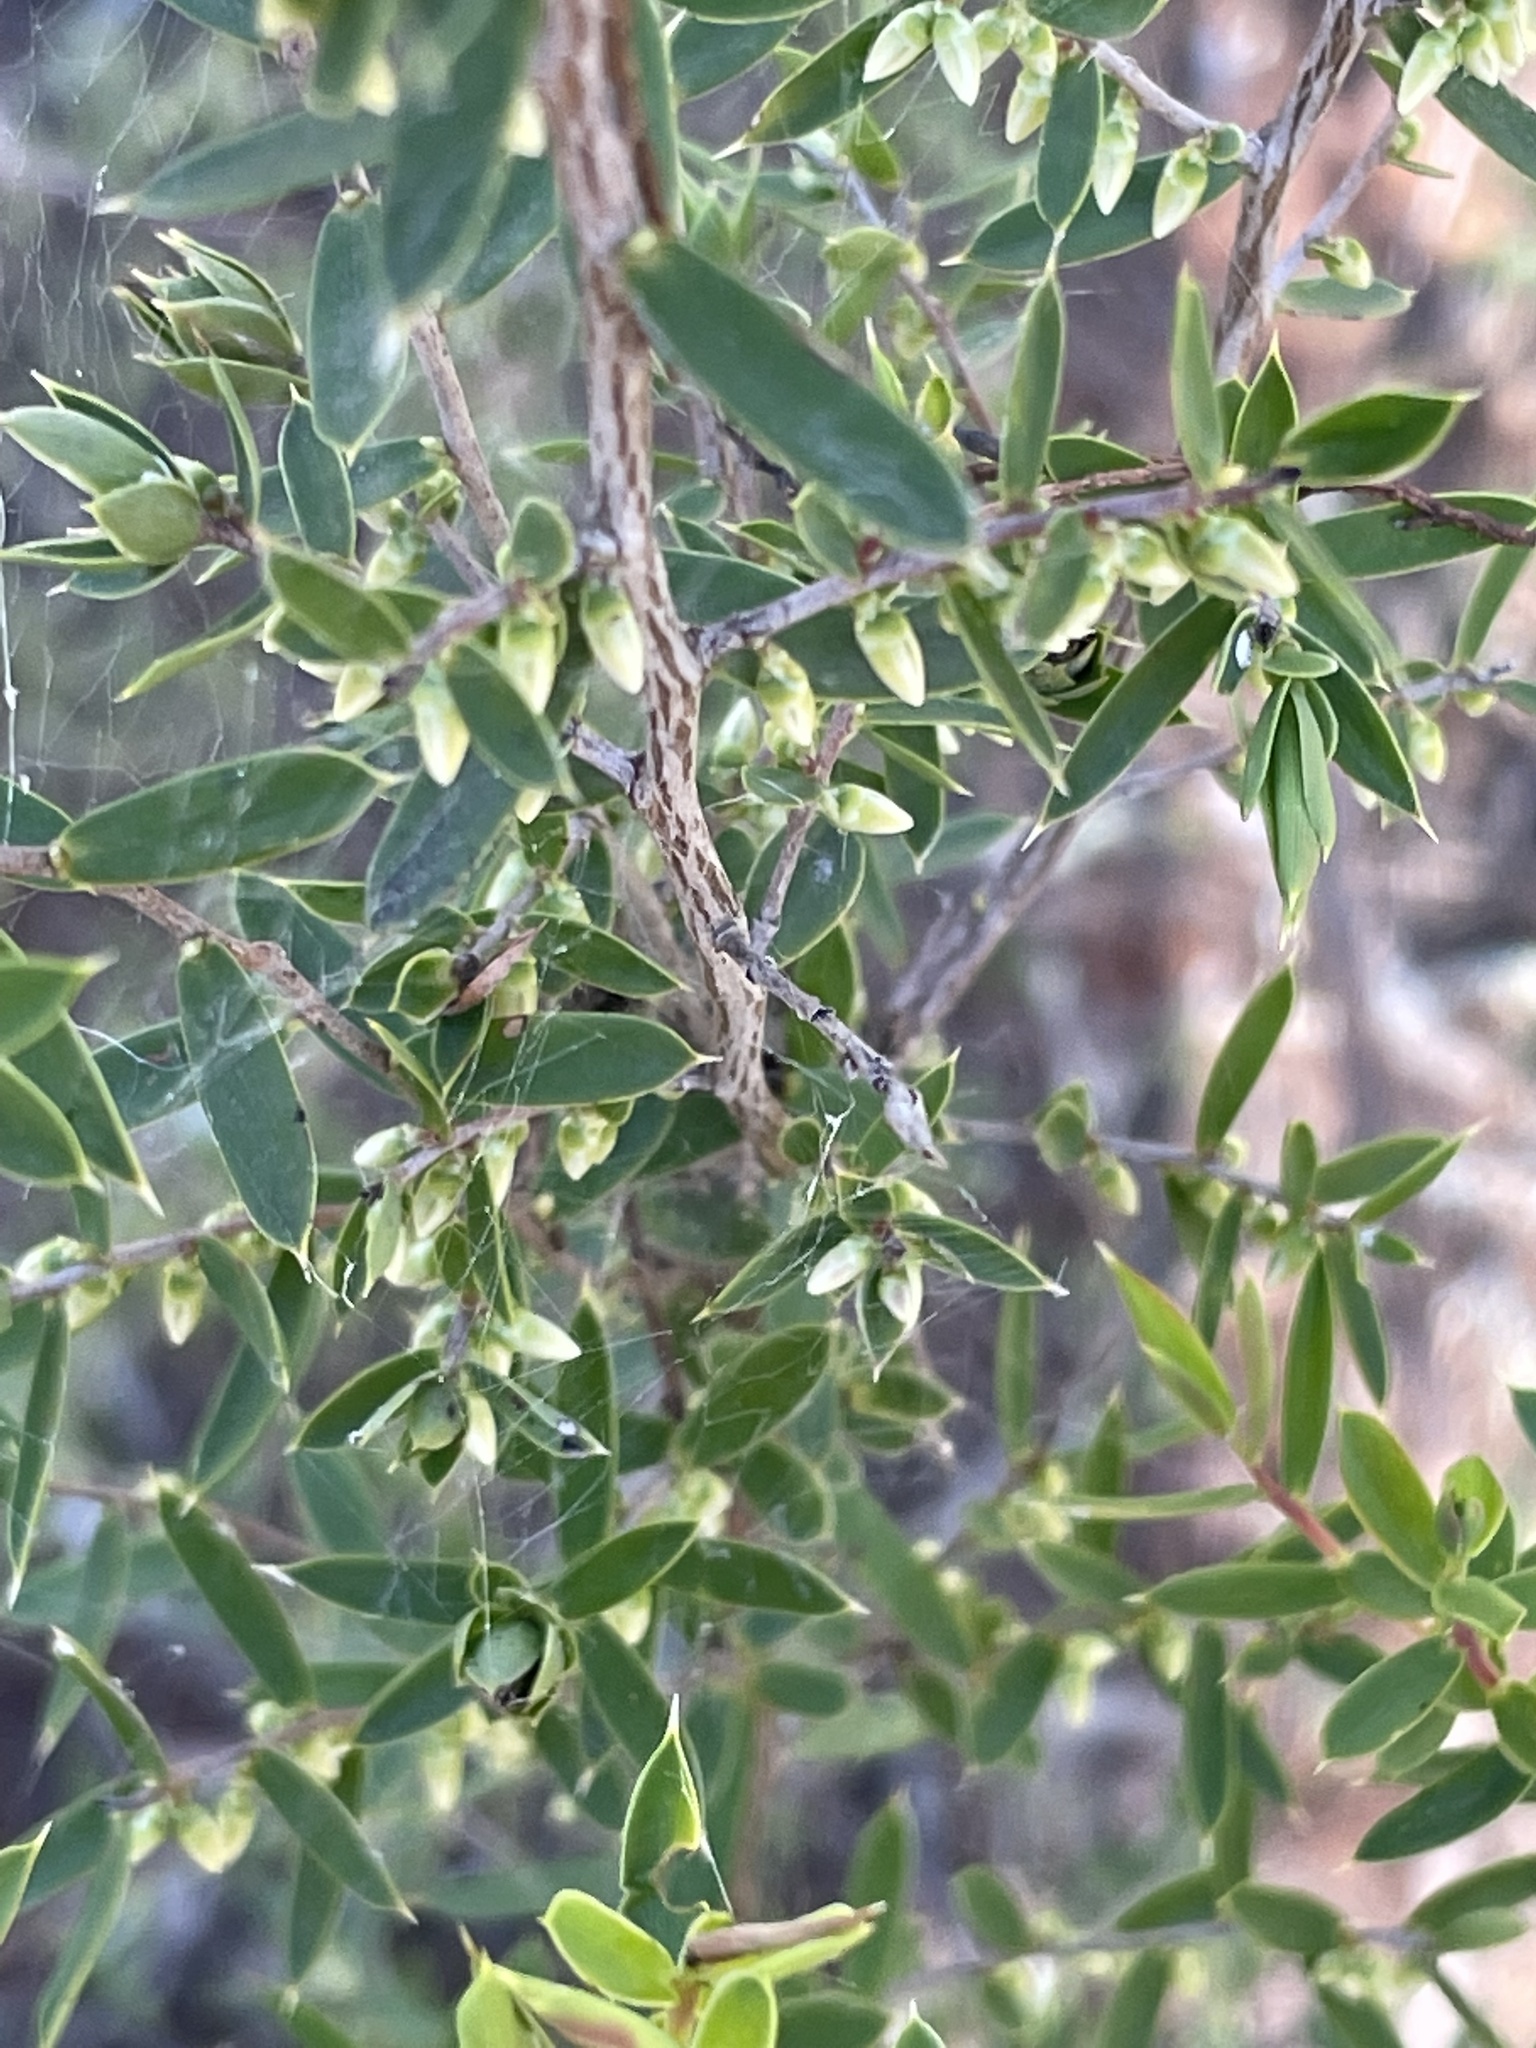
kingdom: Plantae
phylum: Tracheophyta
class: Magnoliopsida
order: Ericales
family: Ericaceae
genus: Styphelia
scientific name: Styphelia mitchellii
